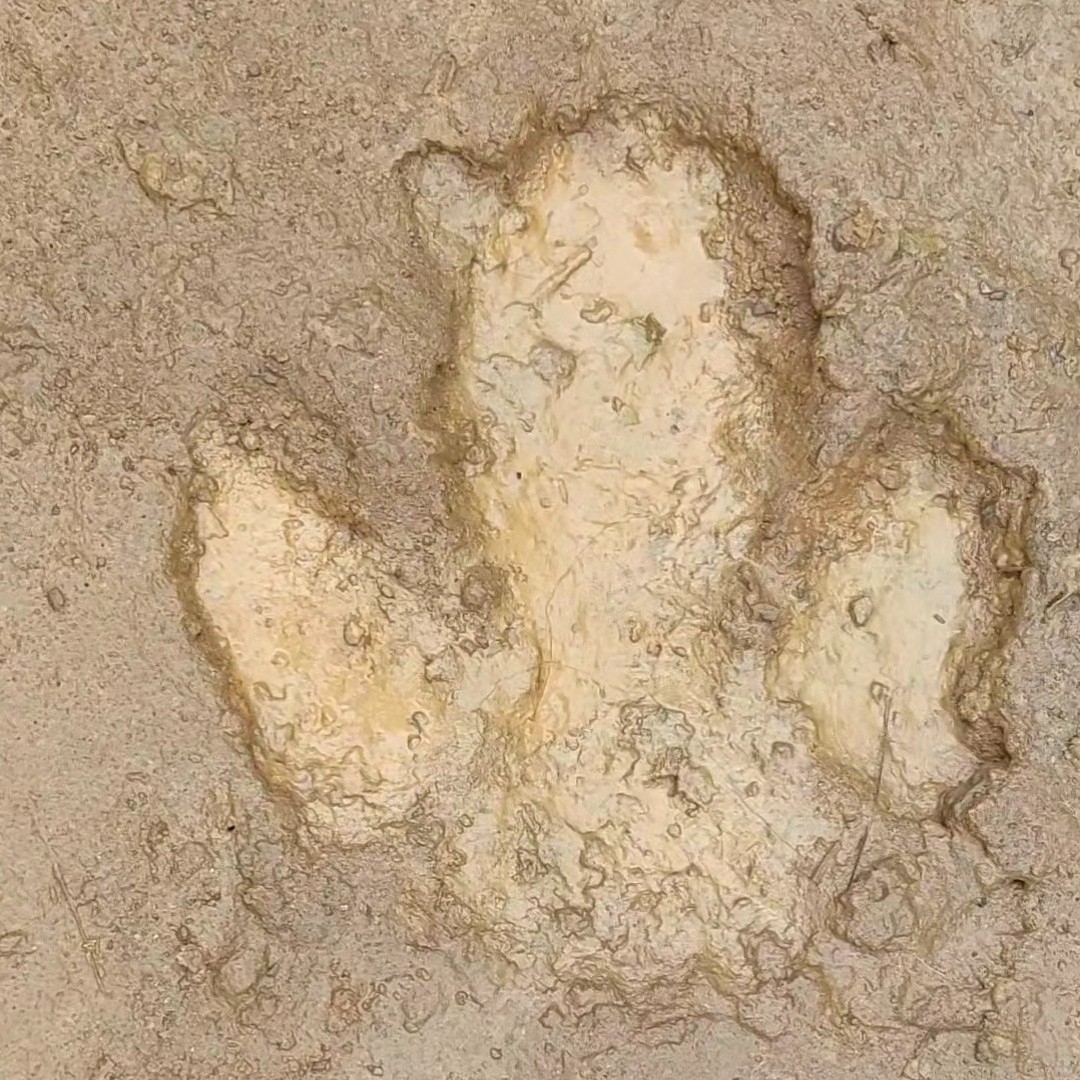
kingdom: Animalia
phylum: Chordata
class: Mammalia
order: Perissodactyla
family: Tapiridae
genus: Tapirus
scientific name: Tapirus terrestris
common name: Brazilian tapir
